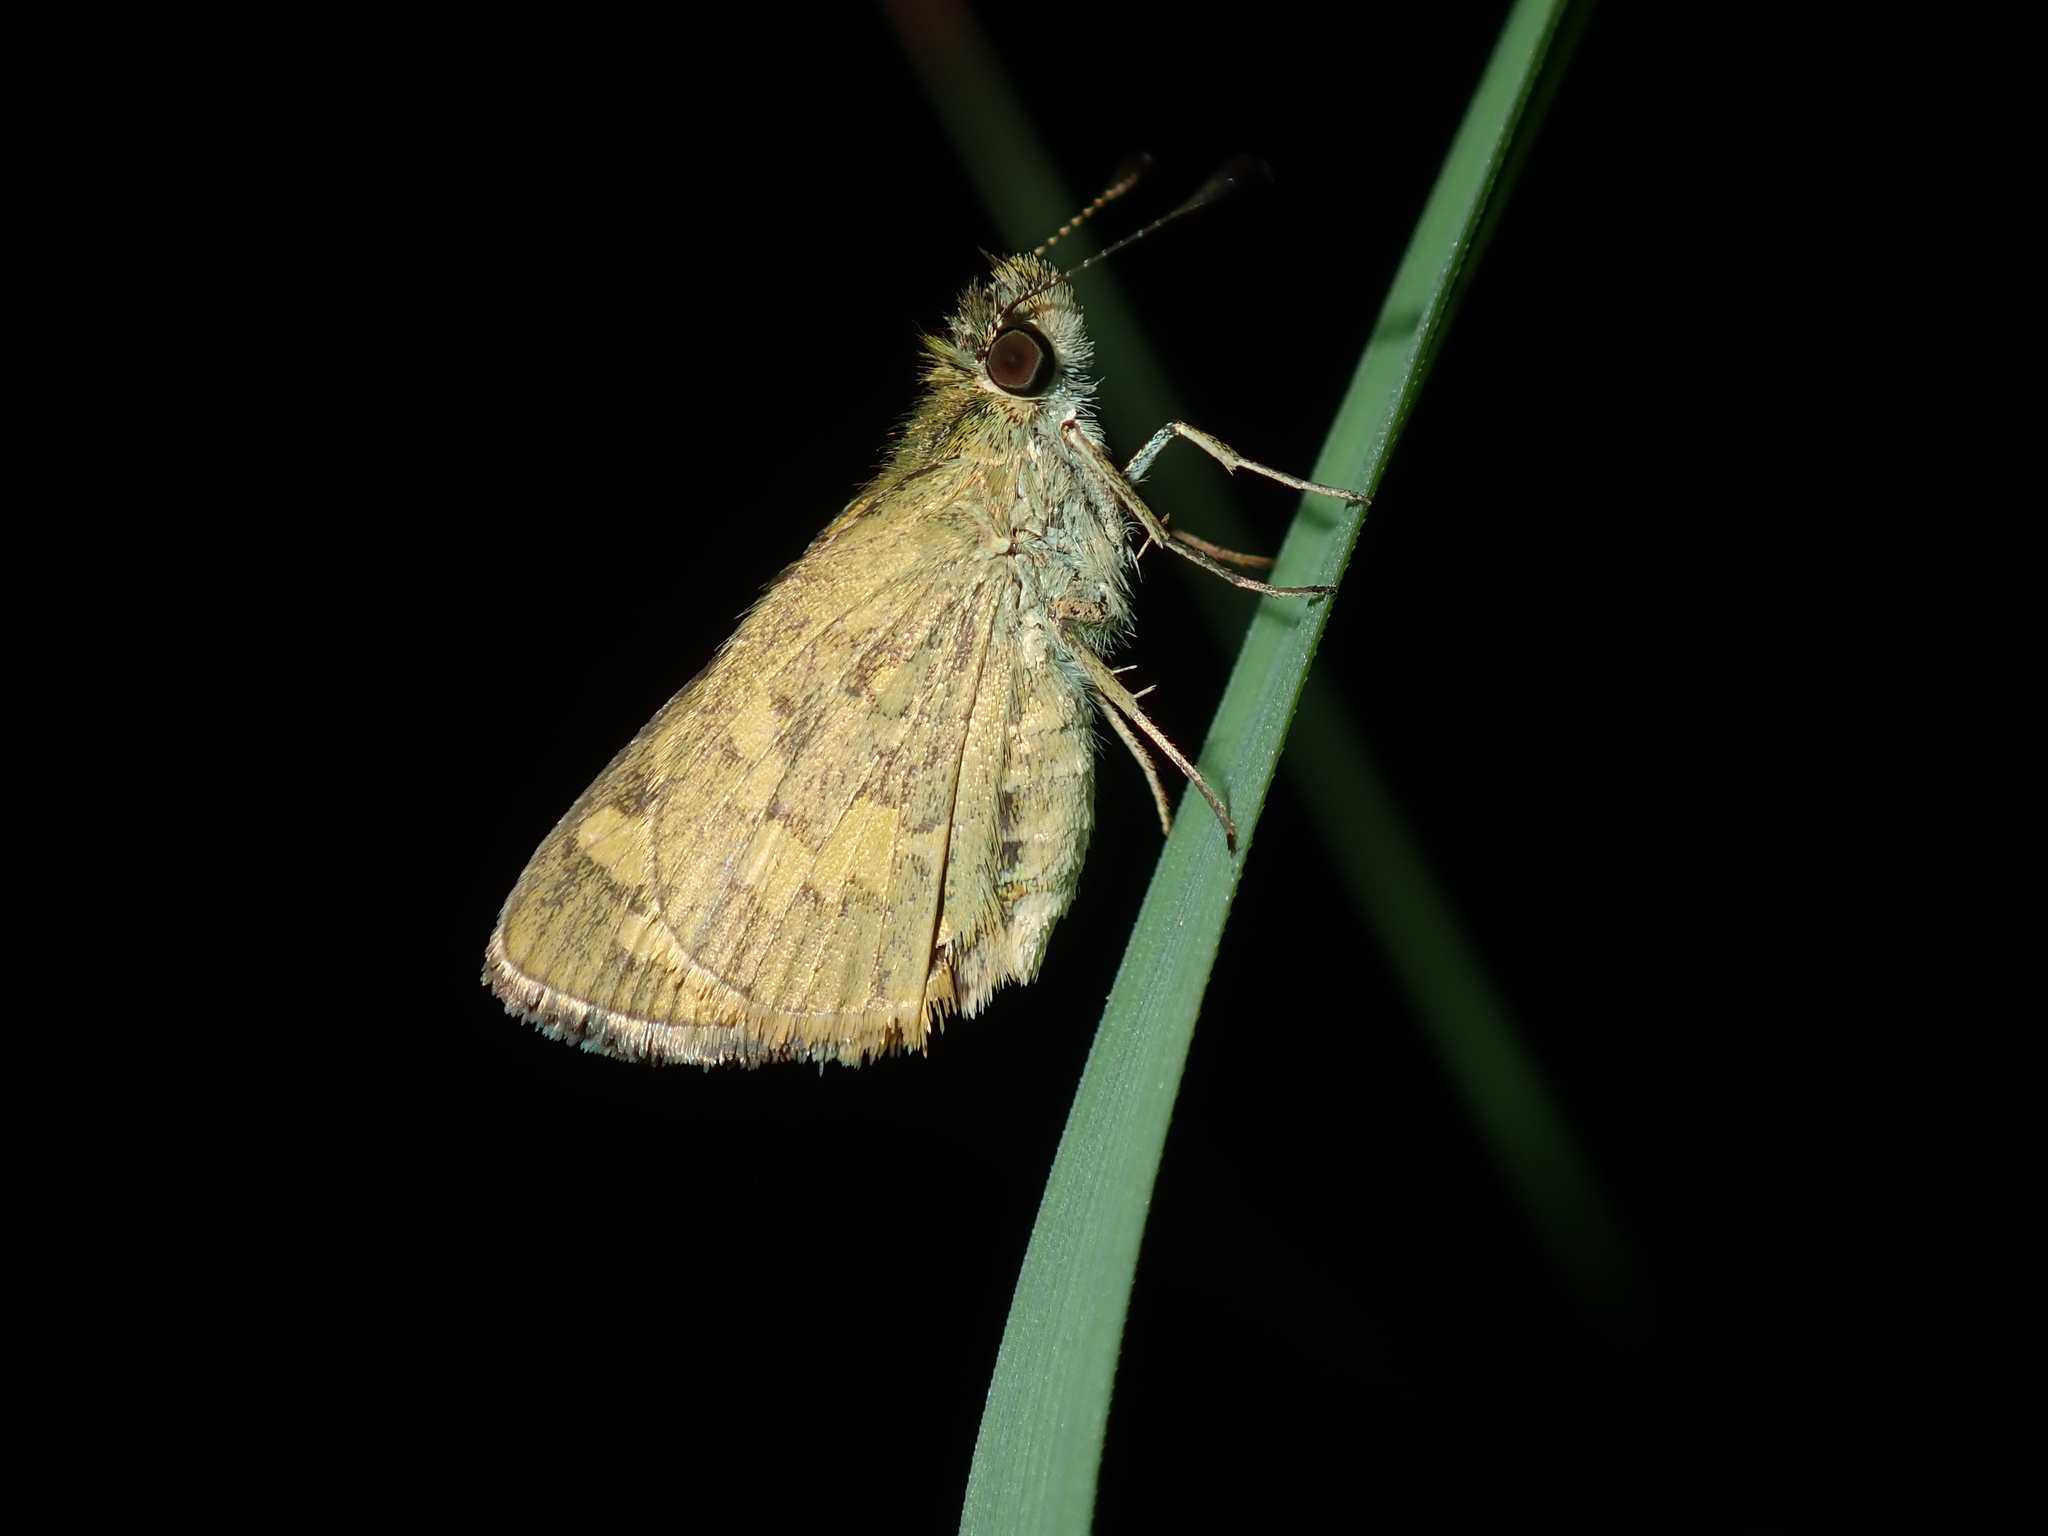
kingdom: Animalia
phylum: Arthropoda
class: Insecta
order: Lepidoptera
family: Hesperiidae
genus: Ocybadistes
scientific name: Ocybadistes walkeri
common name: Yellow-banded dart
